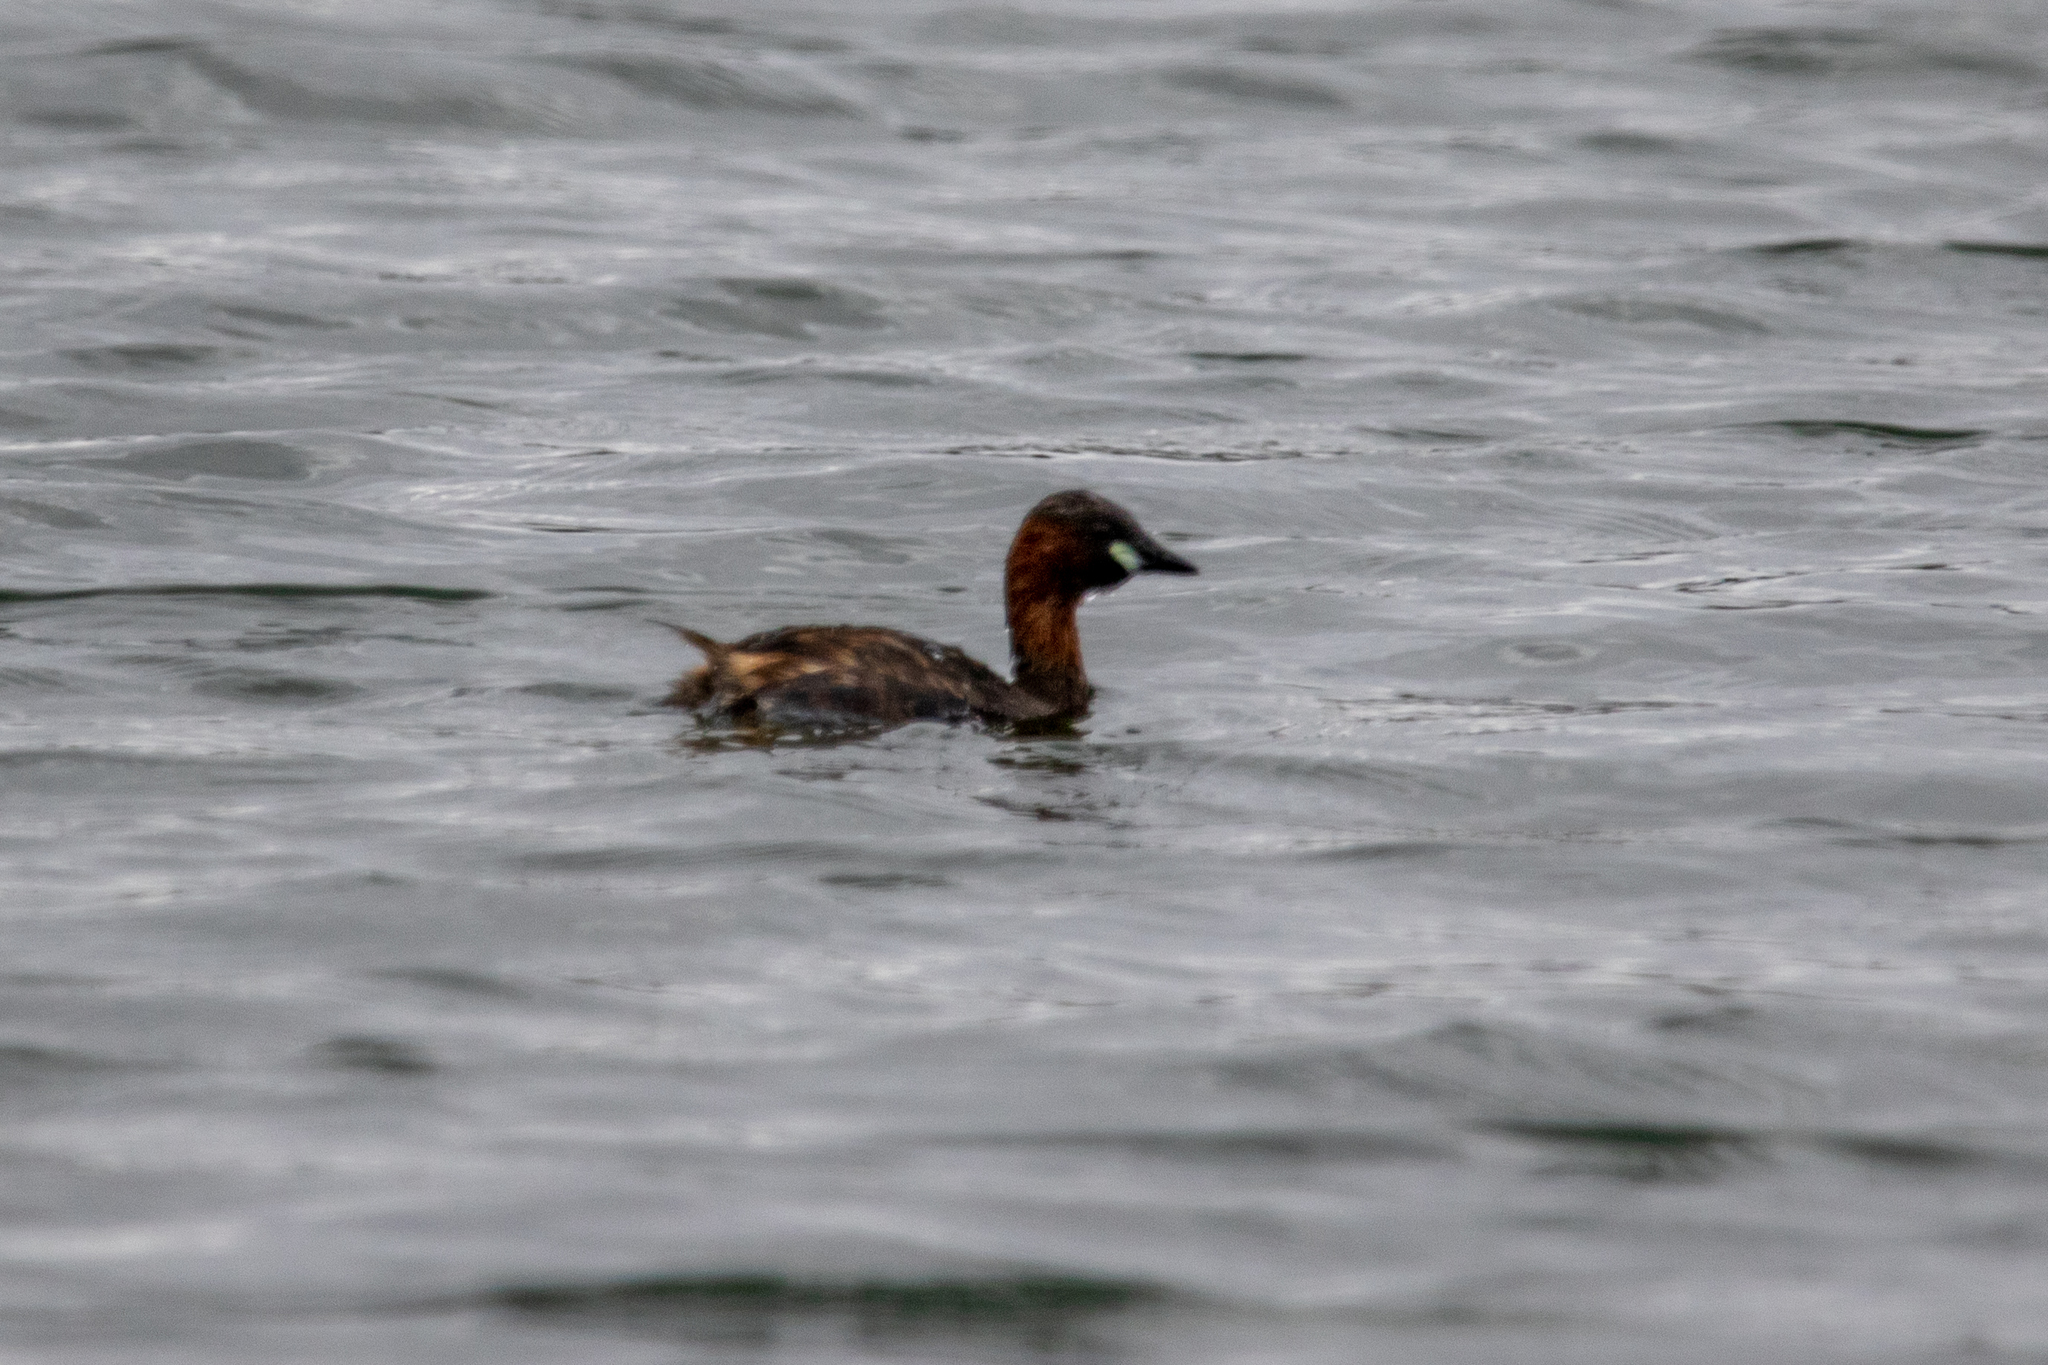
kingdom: Animalia
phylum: Chordata
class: Aves
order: Podicipediformes
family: Podicipedidae
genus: Tachybaptus
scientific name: Tachybaptus ruficollis
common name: Little grebe
